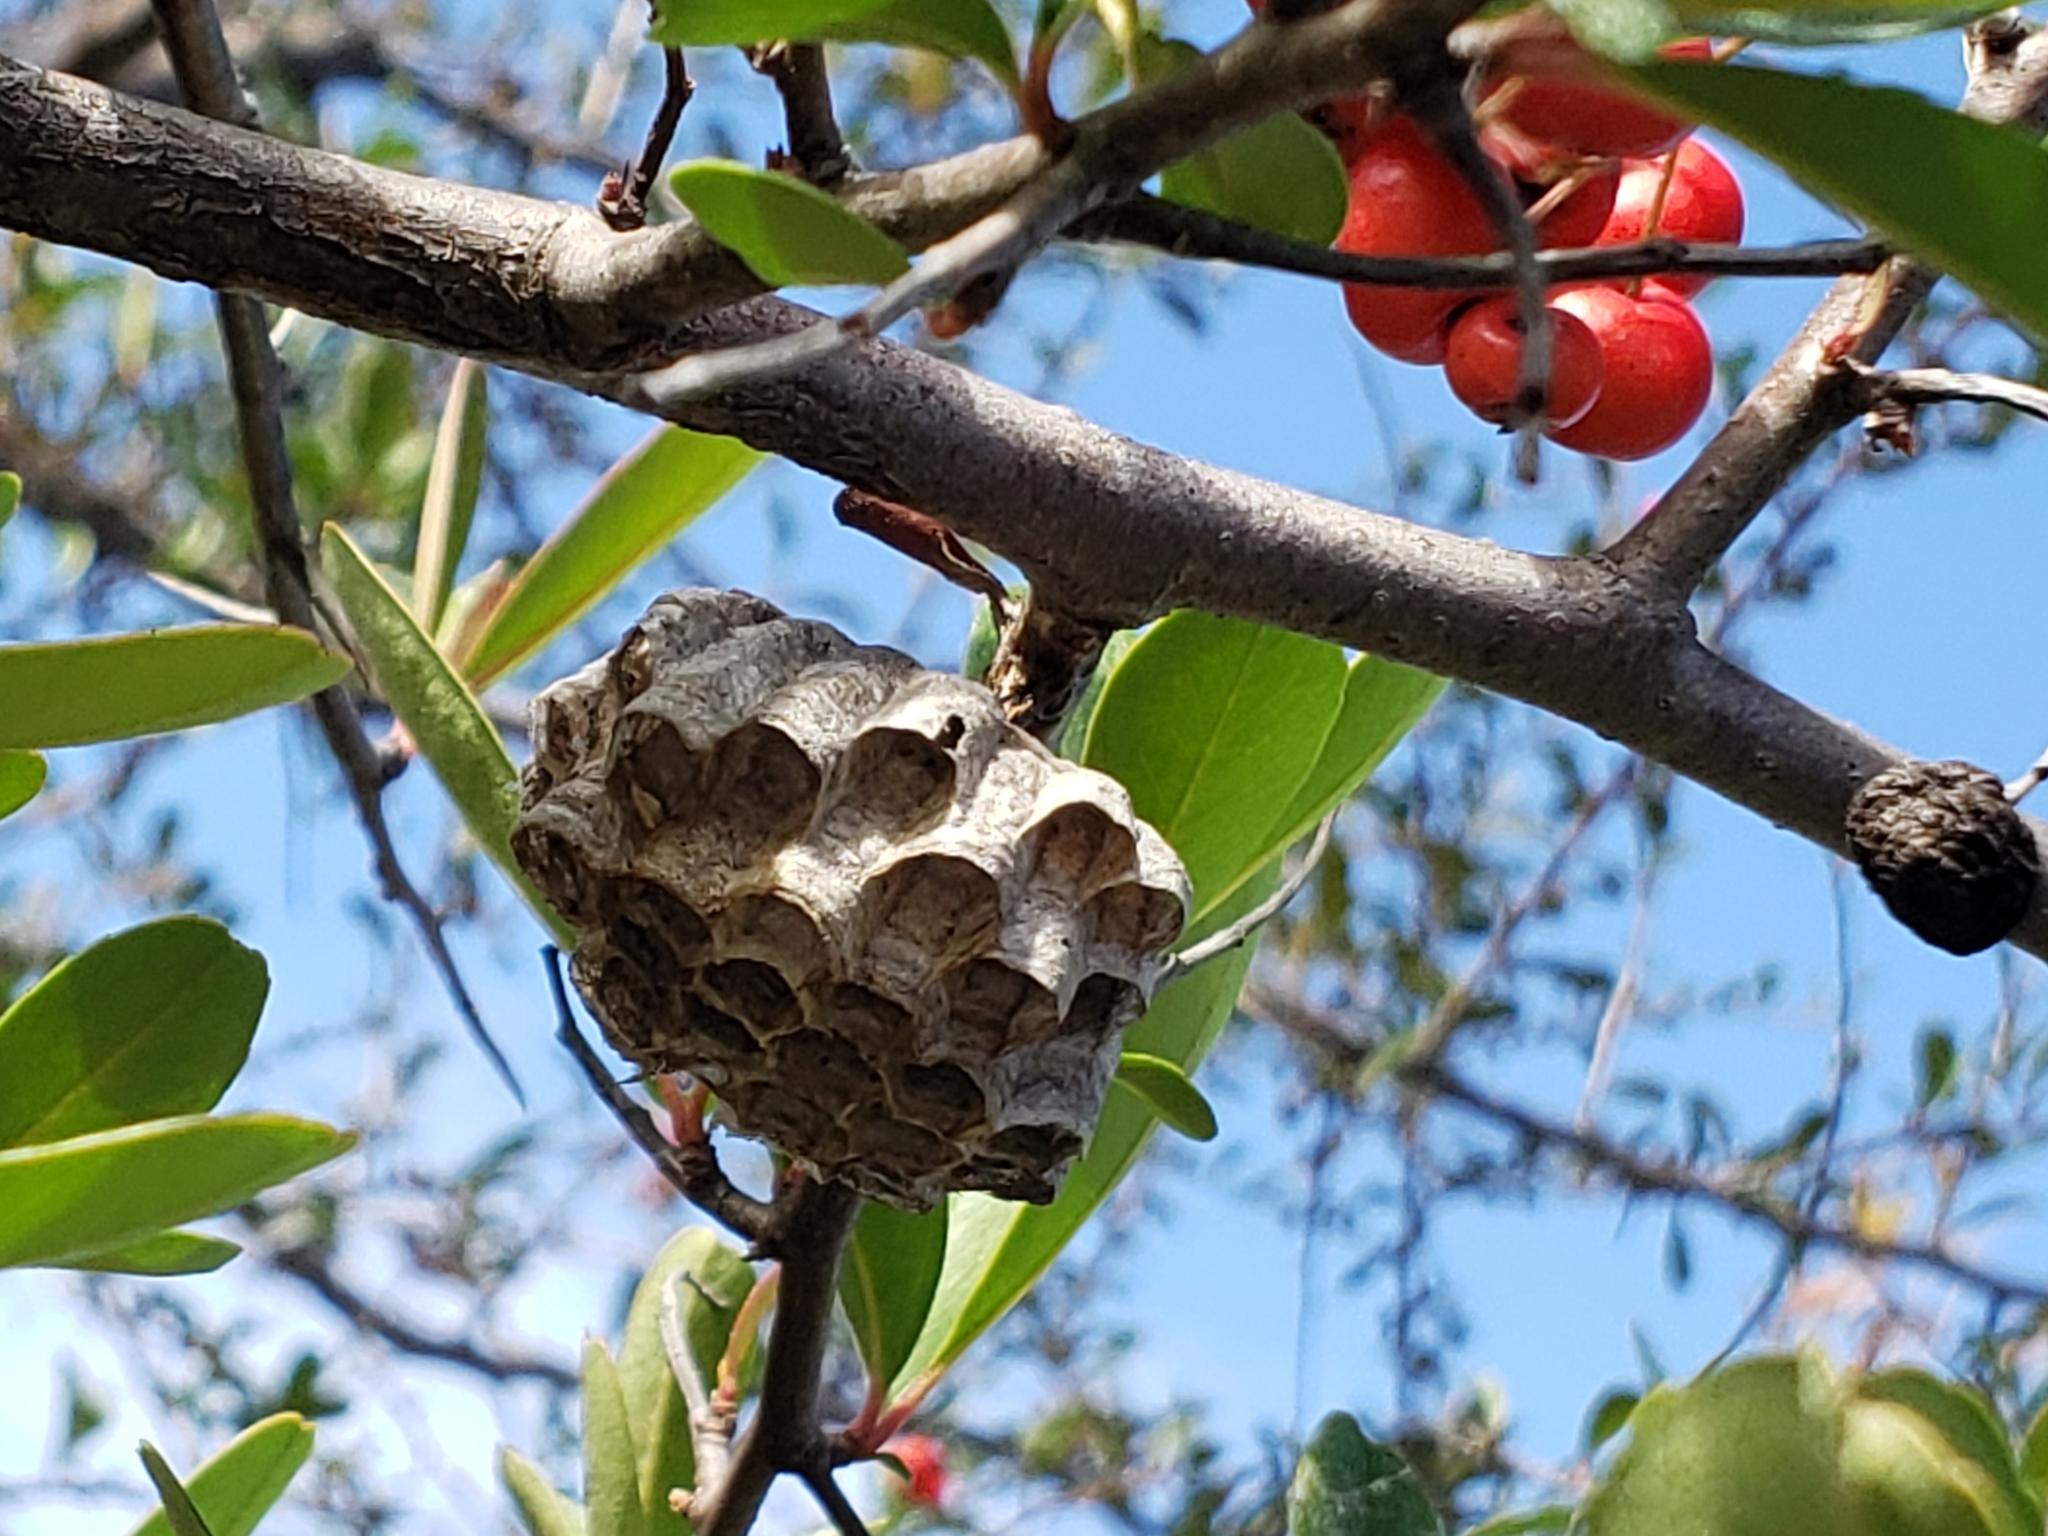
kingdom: Animalia
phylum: Arthropoda
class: Insecta
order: Hymenoptera
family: Eumenidae
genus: Polistes
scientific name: Polistes
